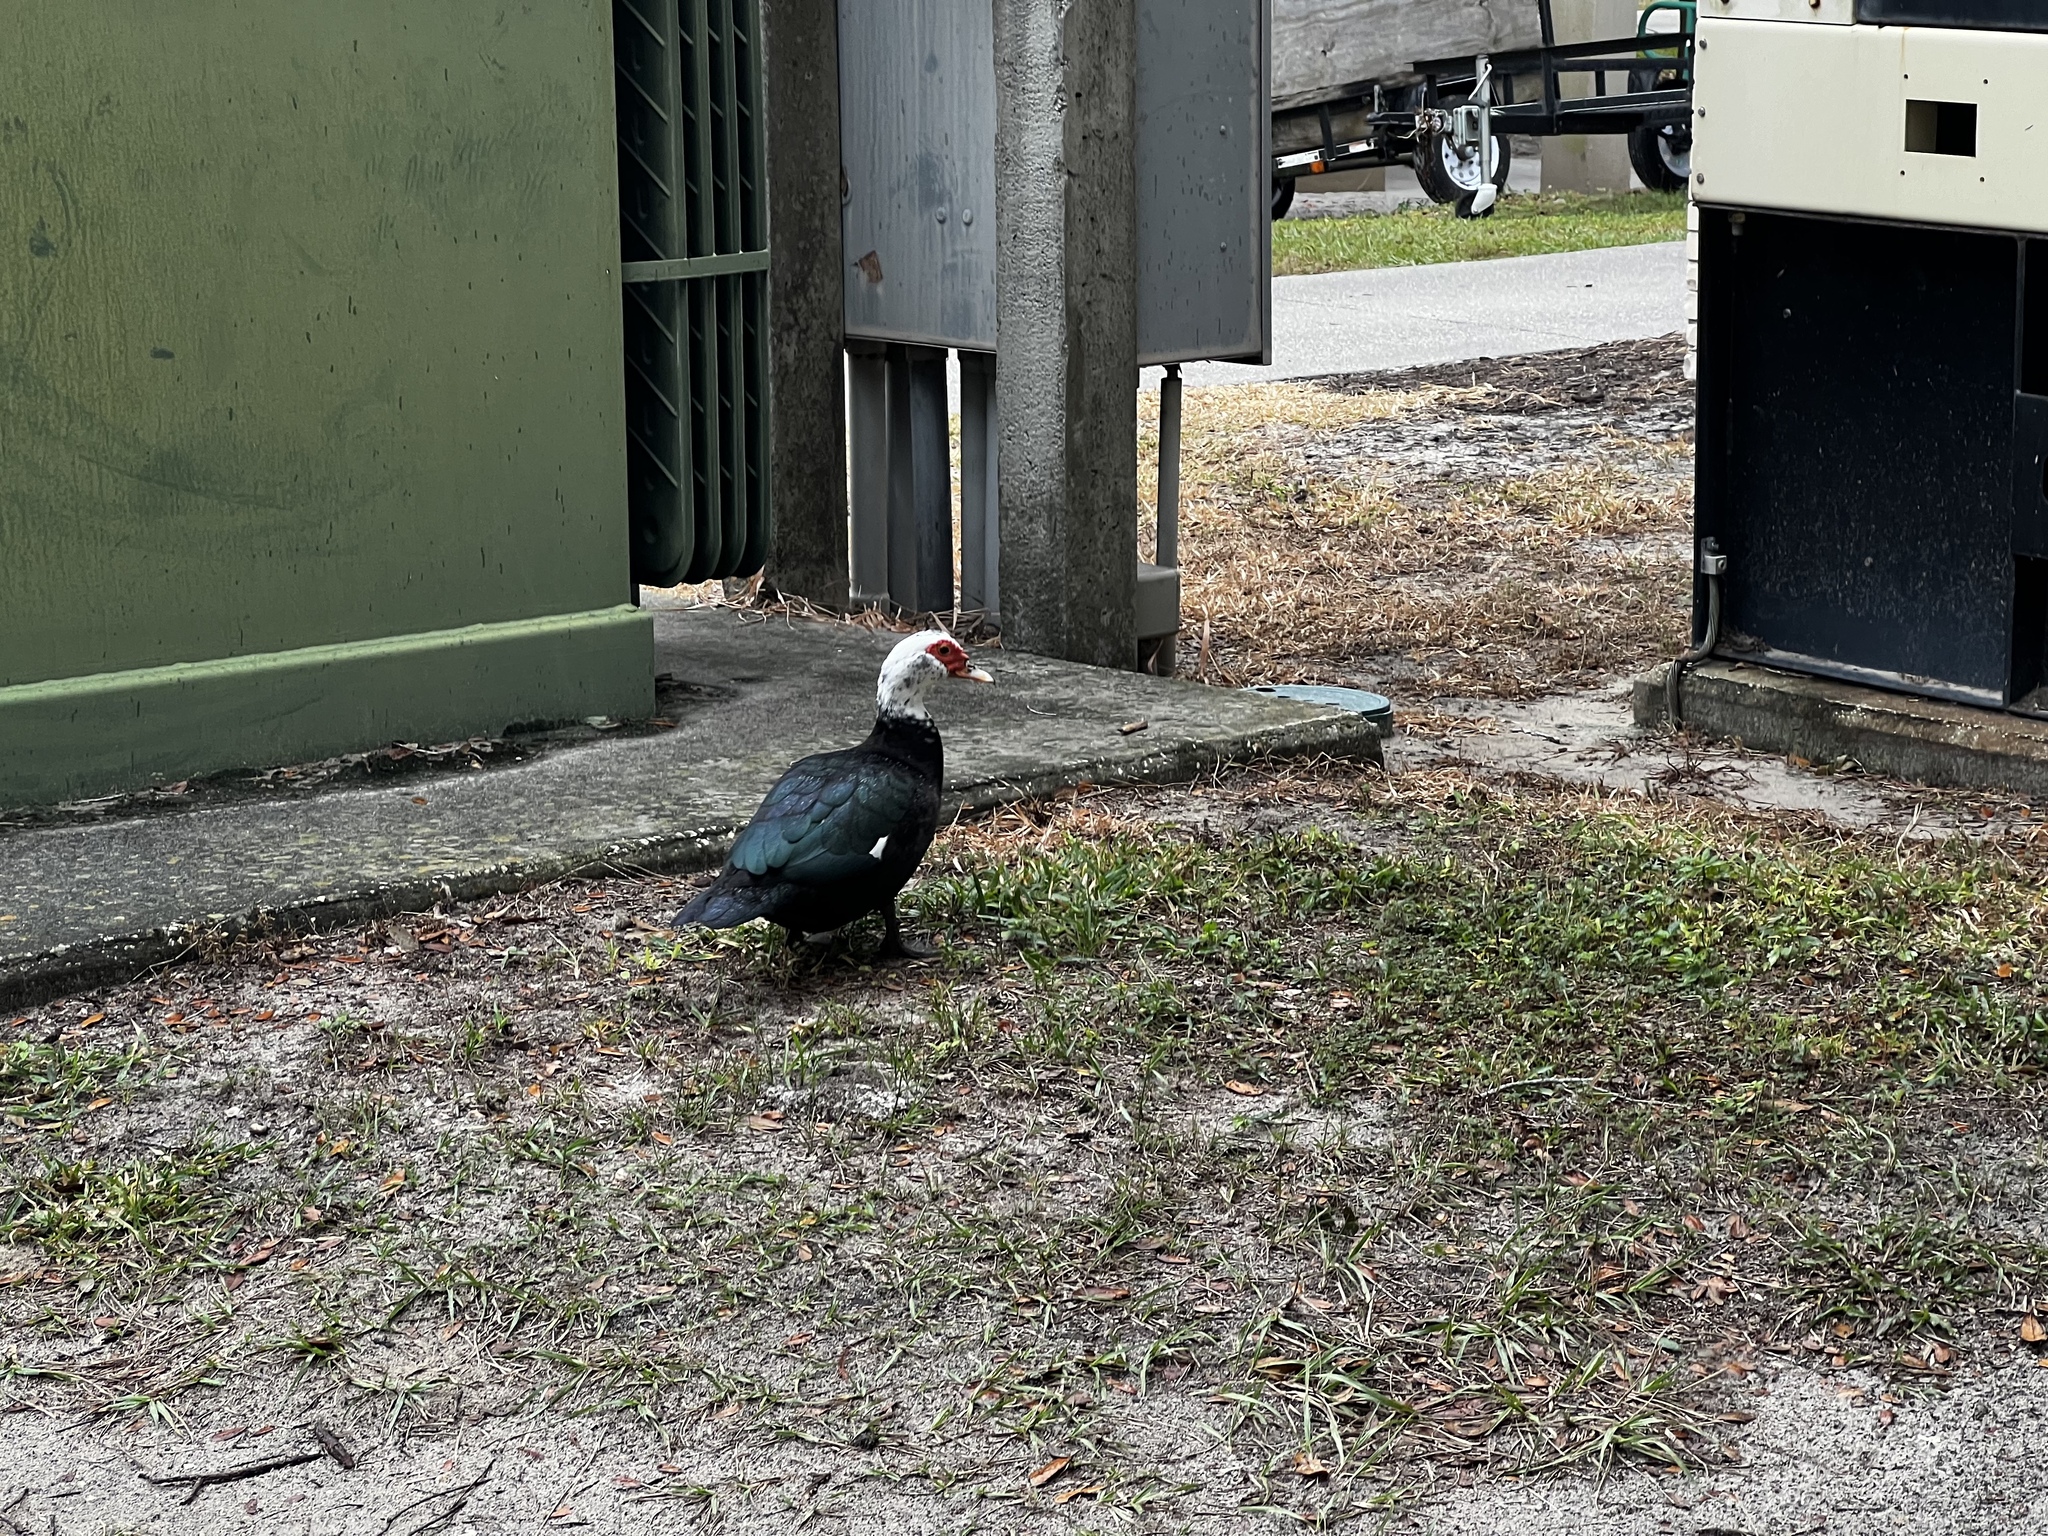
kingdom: Animalia
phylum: Chordata
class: Aves
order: Anseriformes
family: Anatidae
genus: Cairina
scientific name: Cairina moschata
